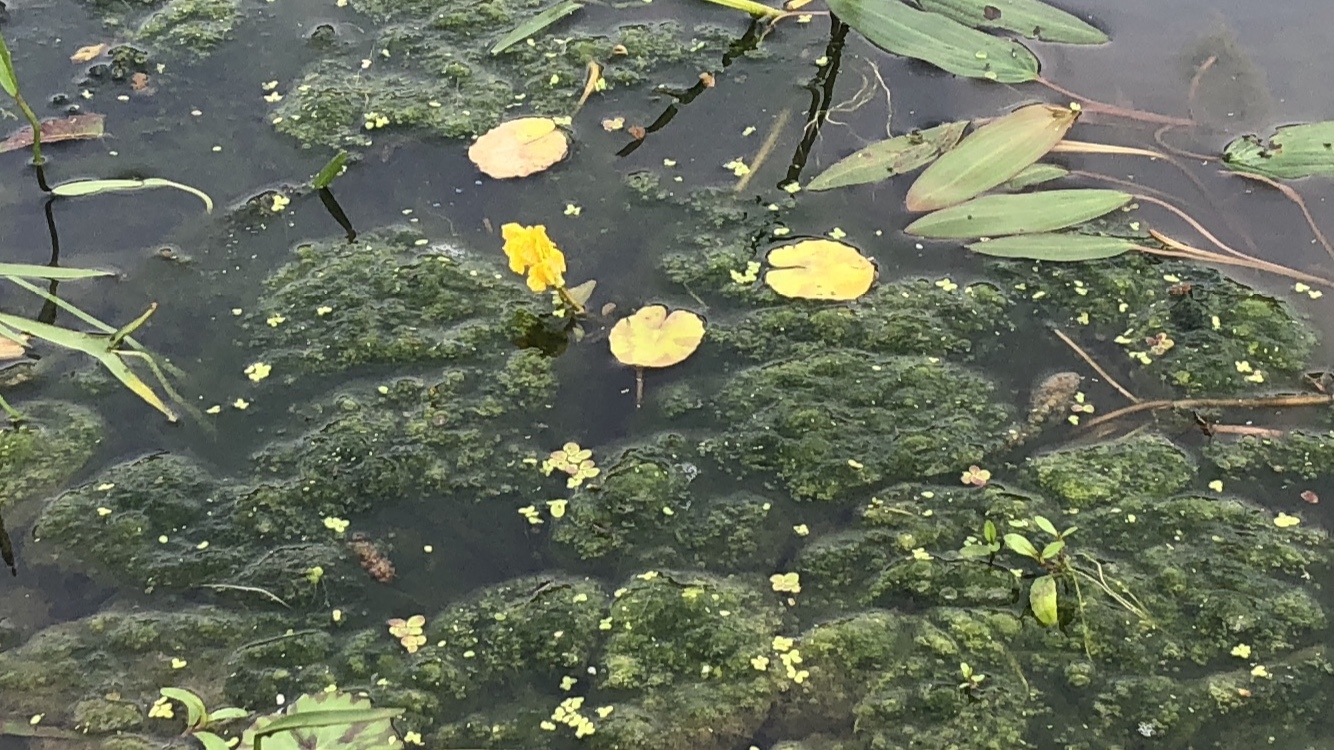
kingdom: Plantae
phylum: Tracheophyta
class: Magnoliopsida
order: Asterales
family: Menyanthaceae
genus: Nymphoides
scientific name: Nymphoides peltata
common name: Fringed water-lily
